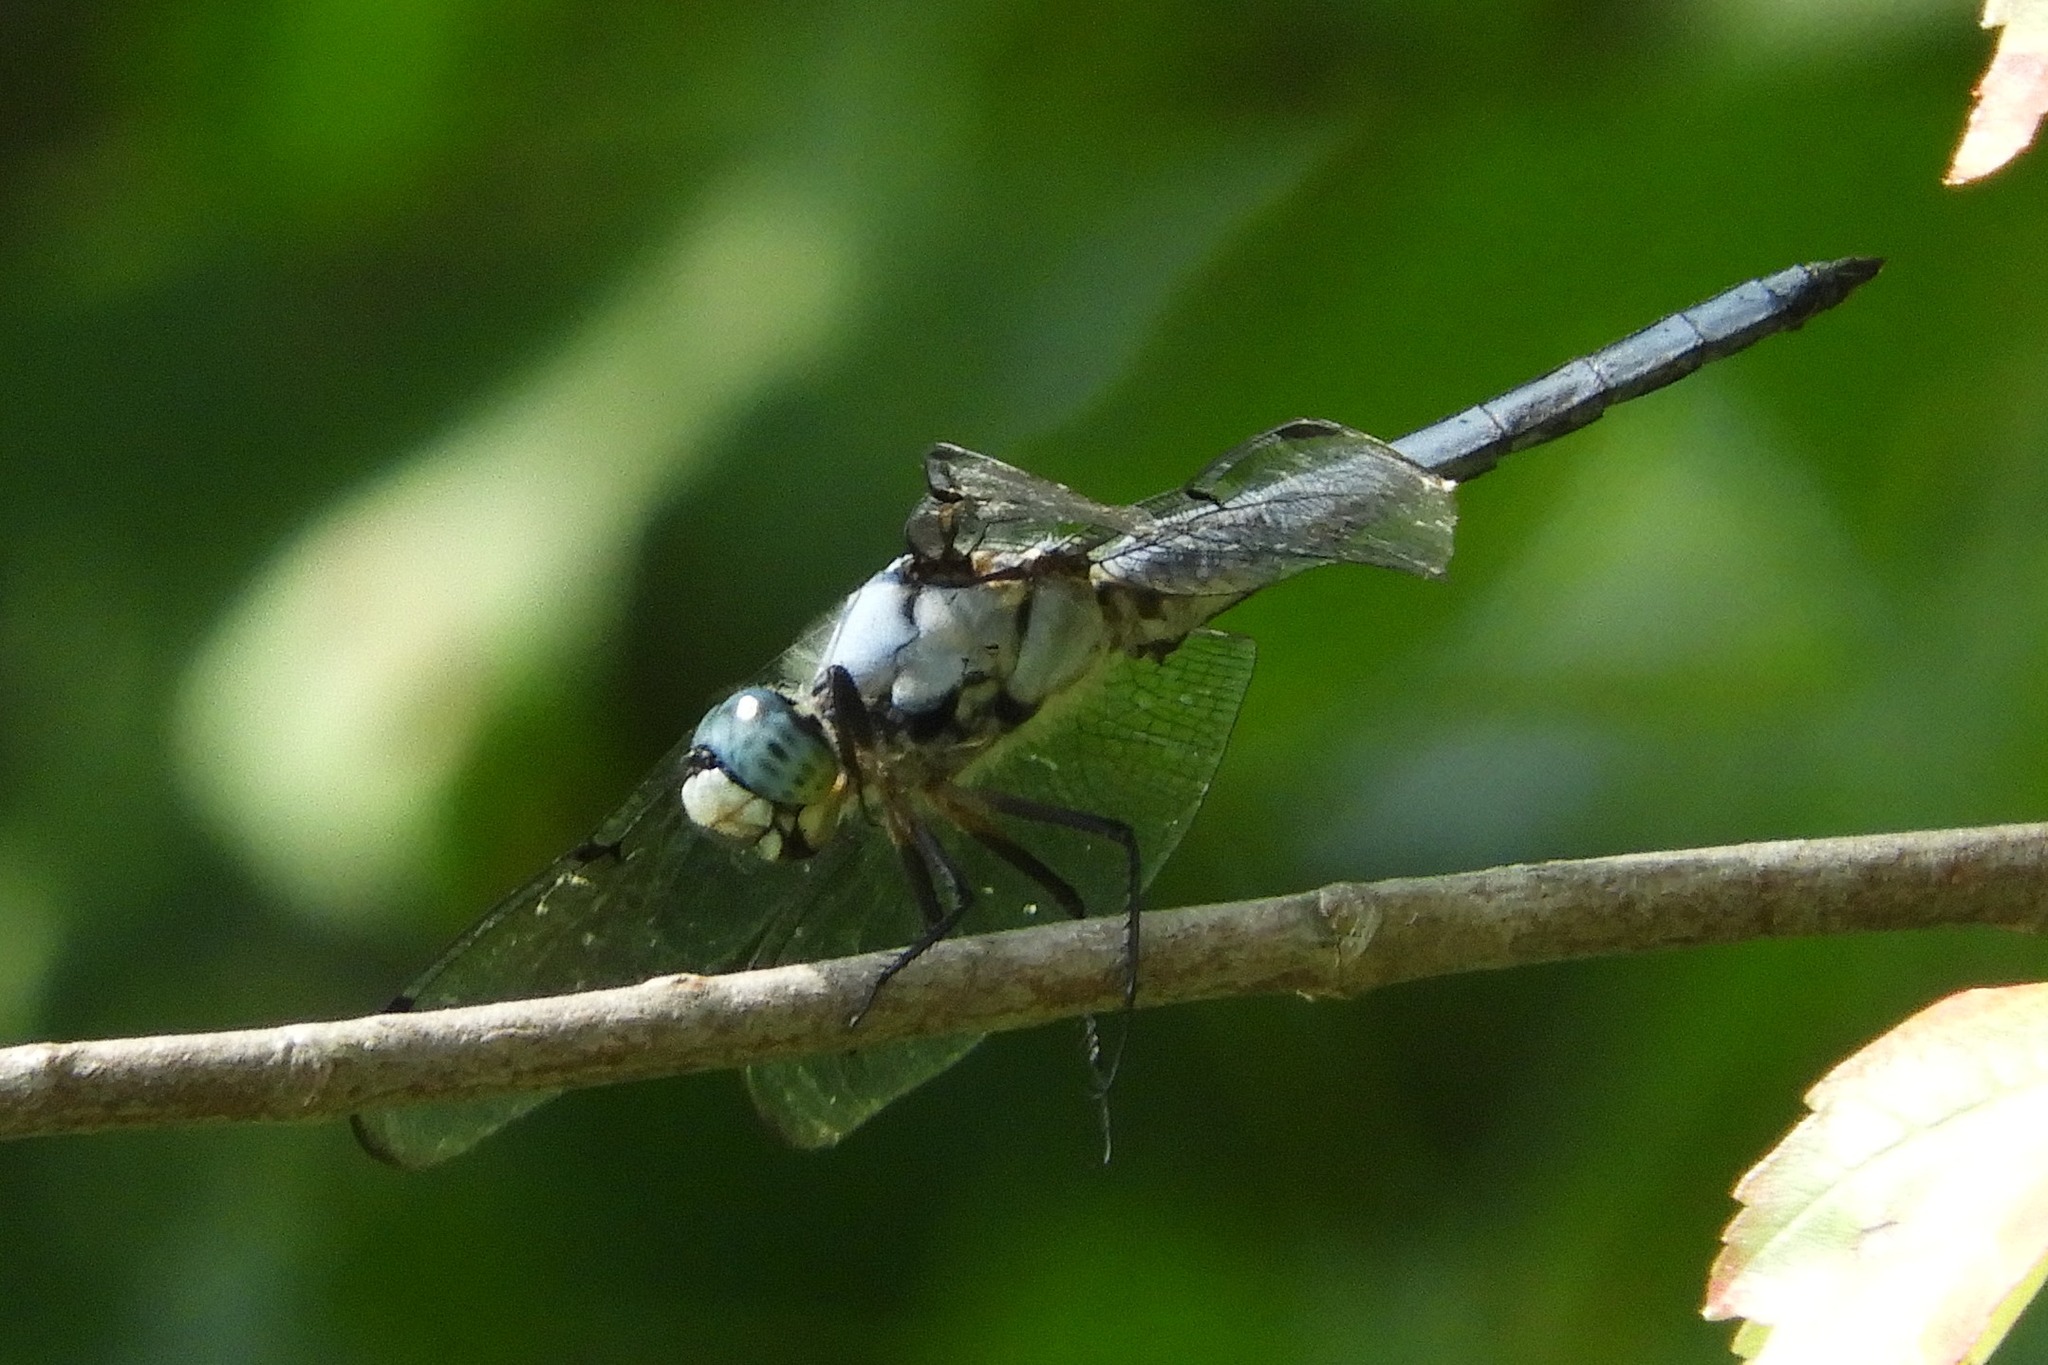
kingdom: Animalia
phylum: Arthropoda
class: Insecta
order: Odonata
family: Libellulidae
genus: Libellula
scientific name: Libellula vibrans
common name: Great blue skimmer
